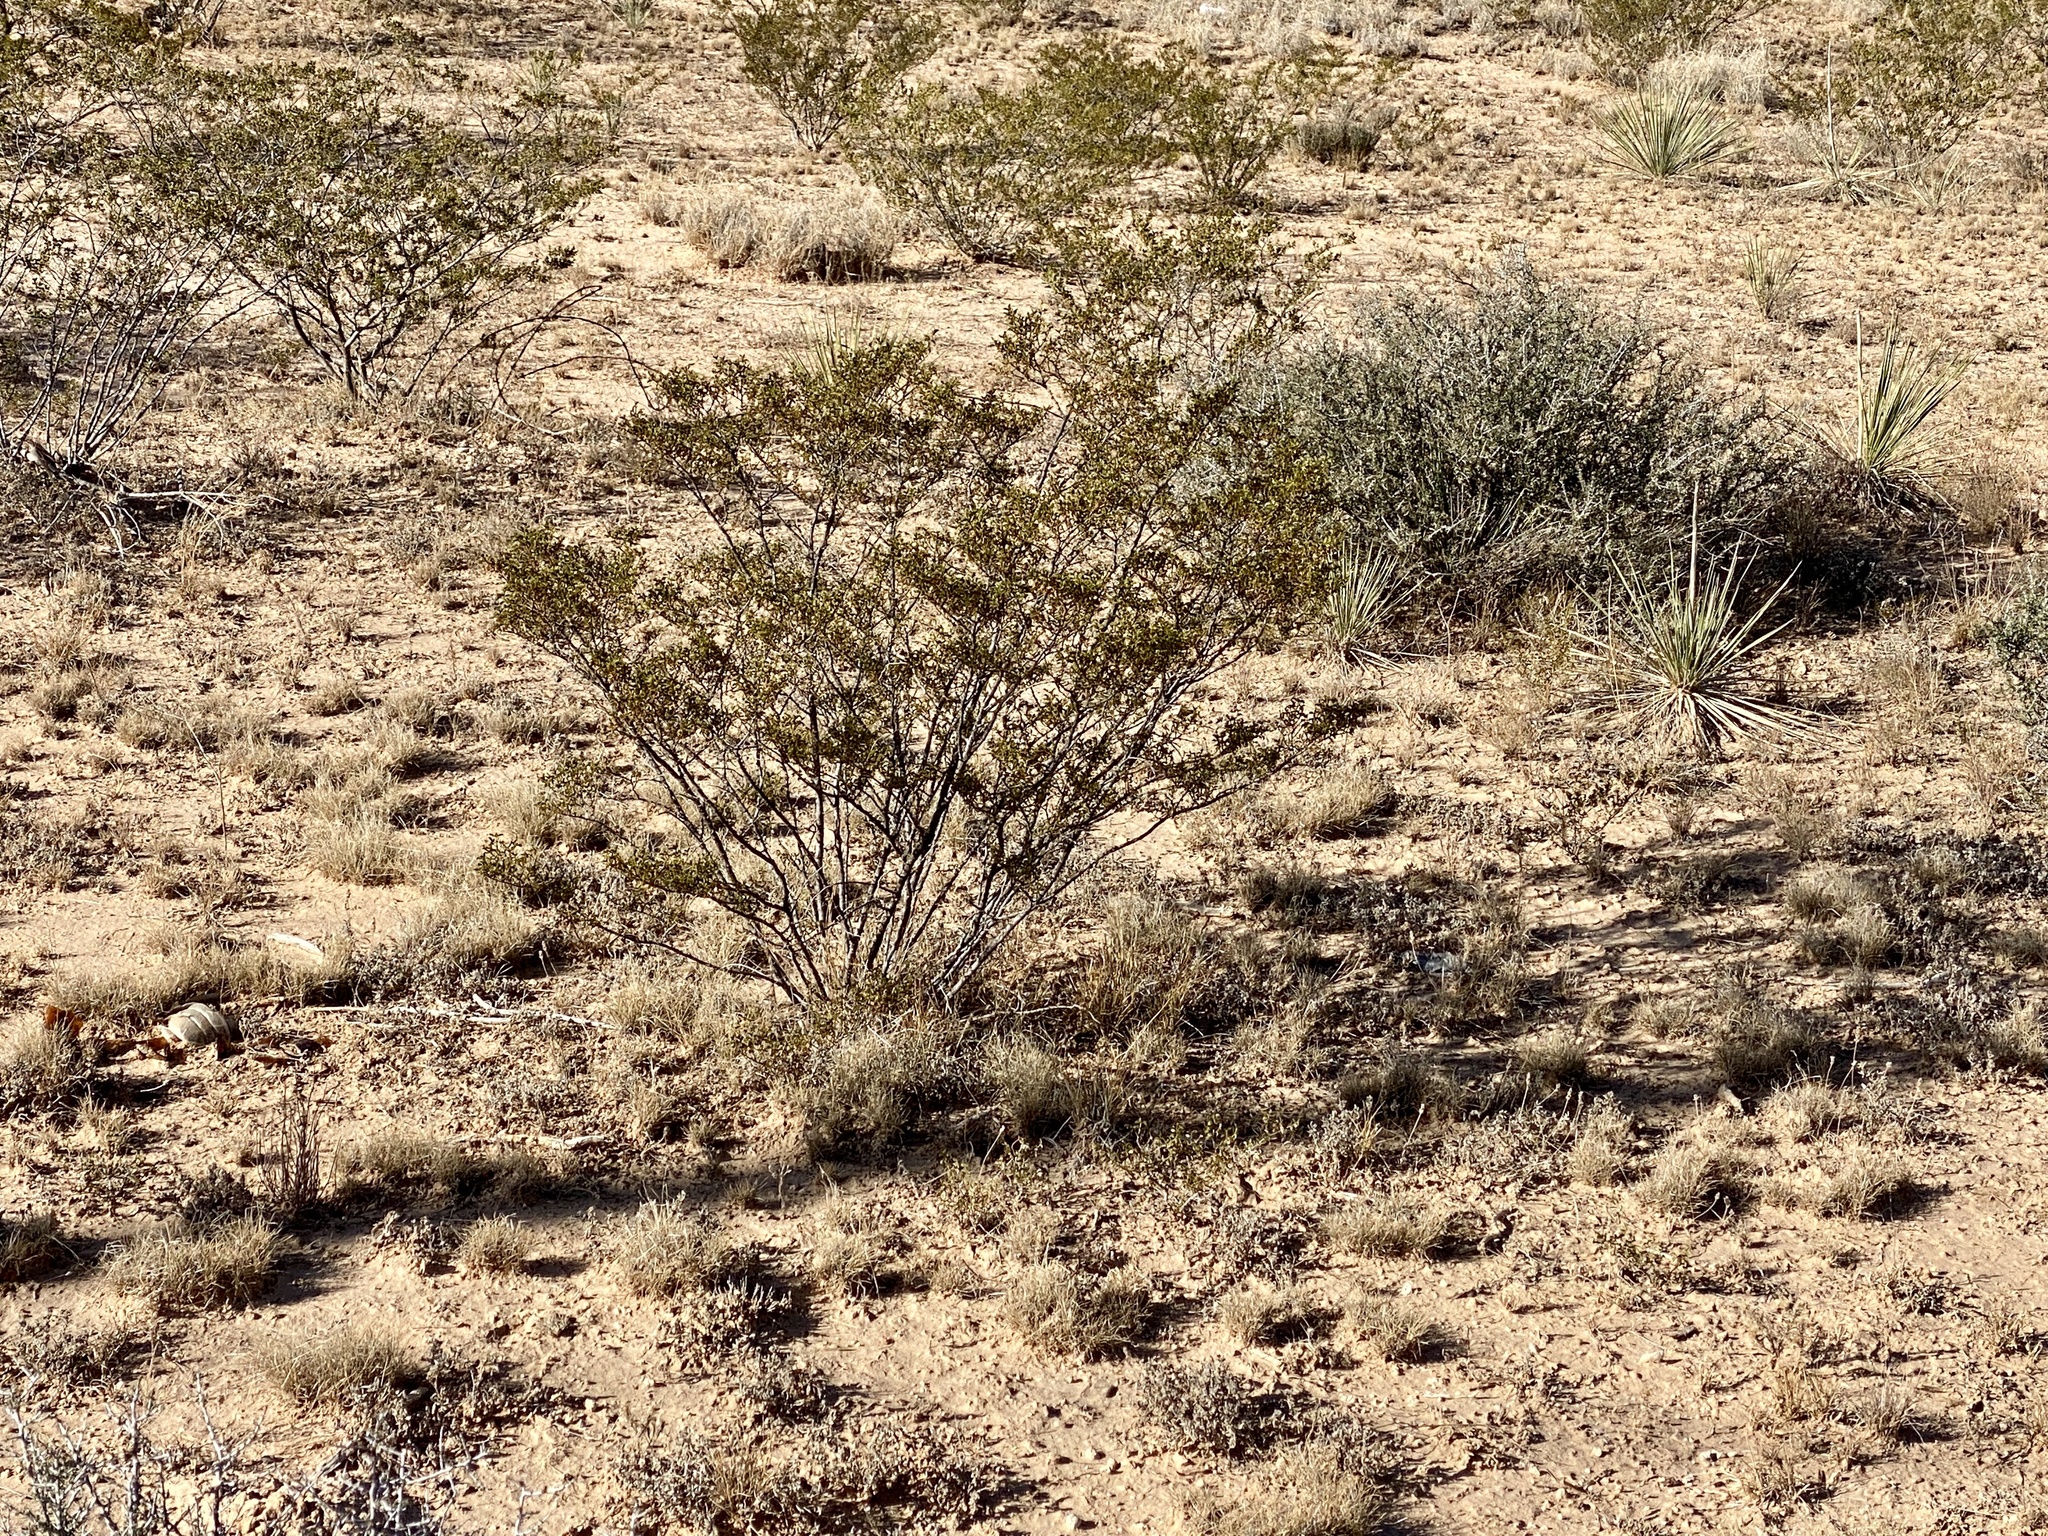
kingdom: Plantae
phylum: Tracheophyta
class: Magnoliopsida
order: Zygophyllales
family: Zygophyllaceae
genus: Larrea
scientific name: Larrea tridentata
